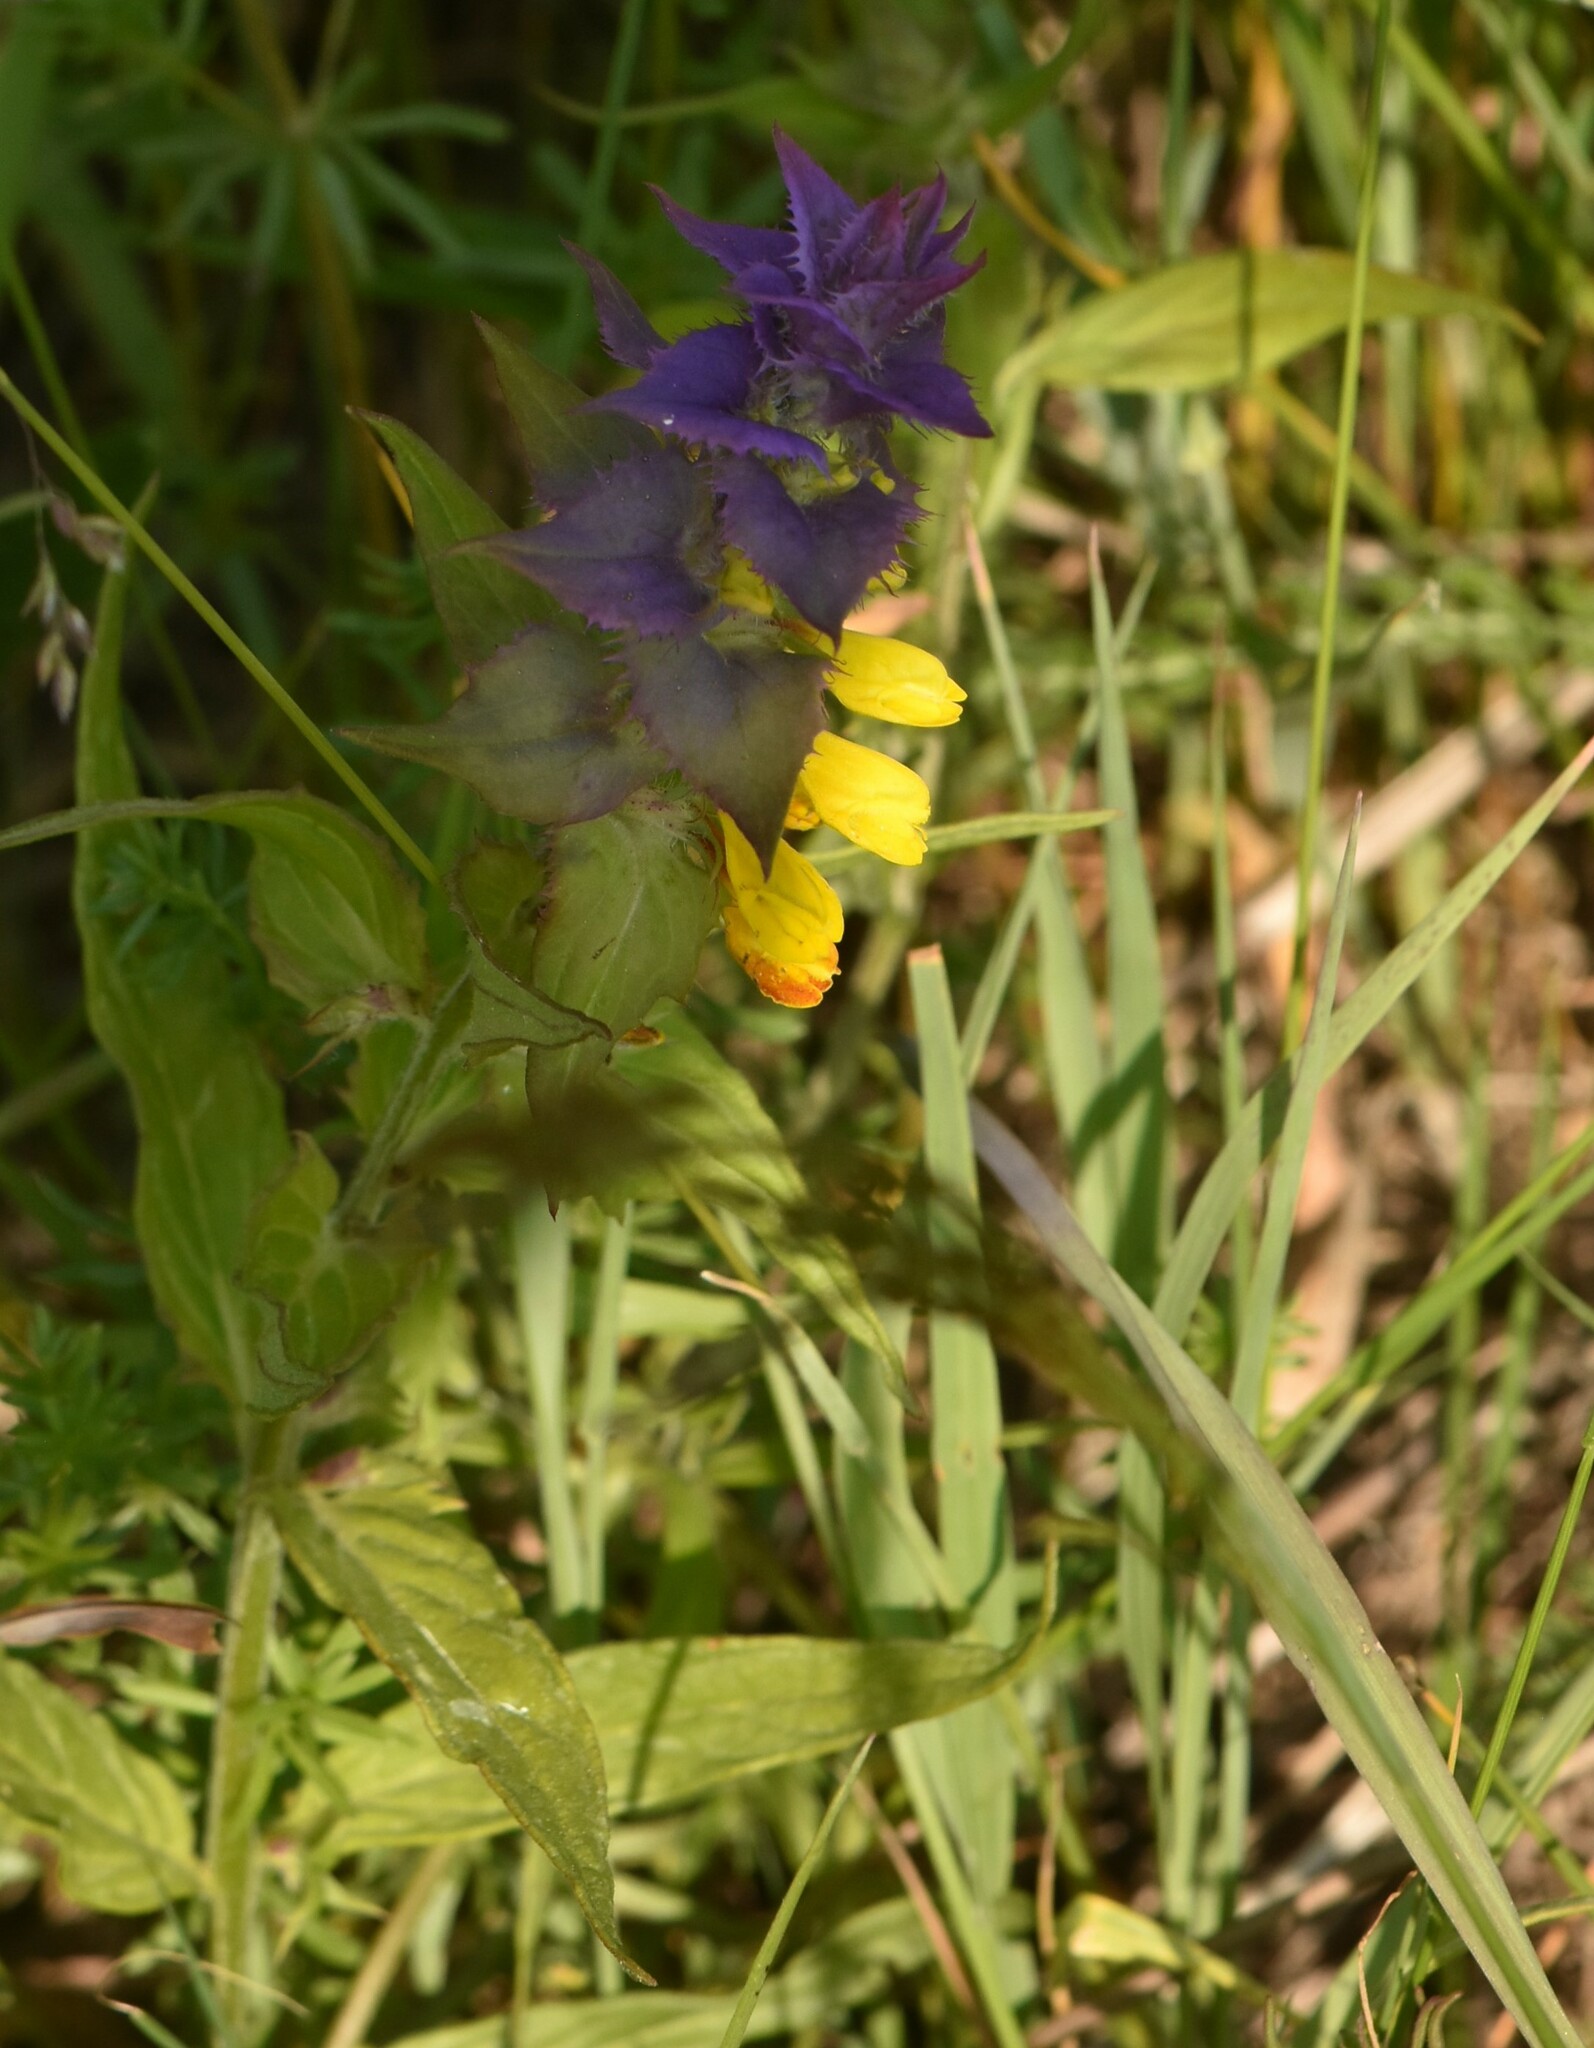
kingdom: Plantae
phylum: Tracheophyta
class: Magnoliopsida
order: Lamiales
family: Orobanchaceae
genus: Melampyrum
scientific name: Melampyrum nemorosum
